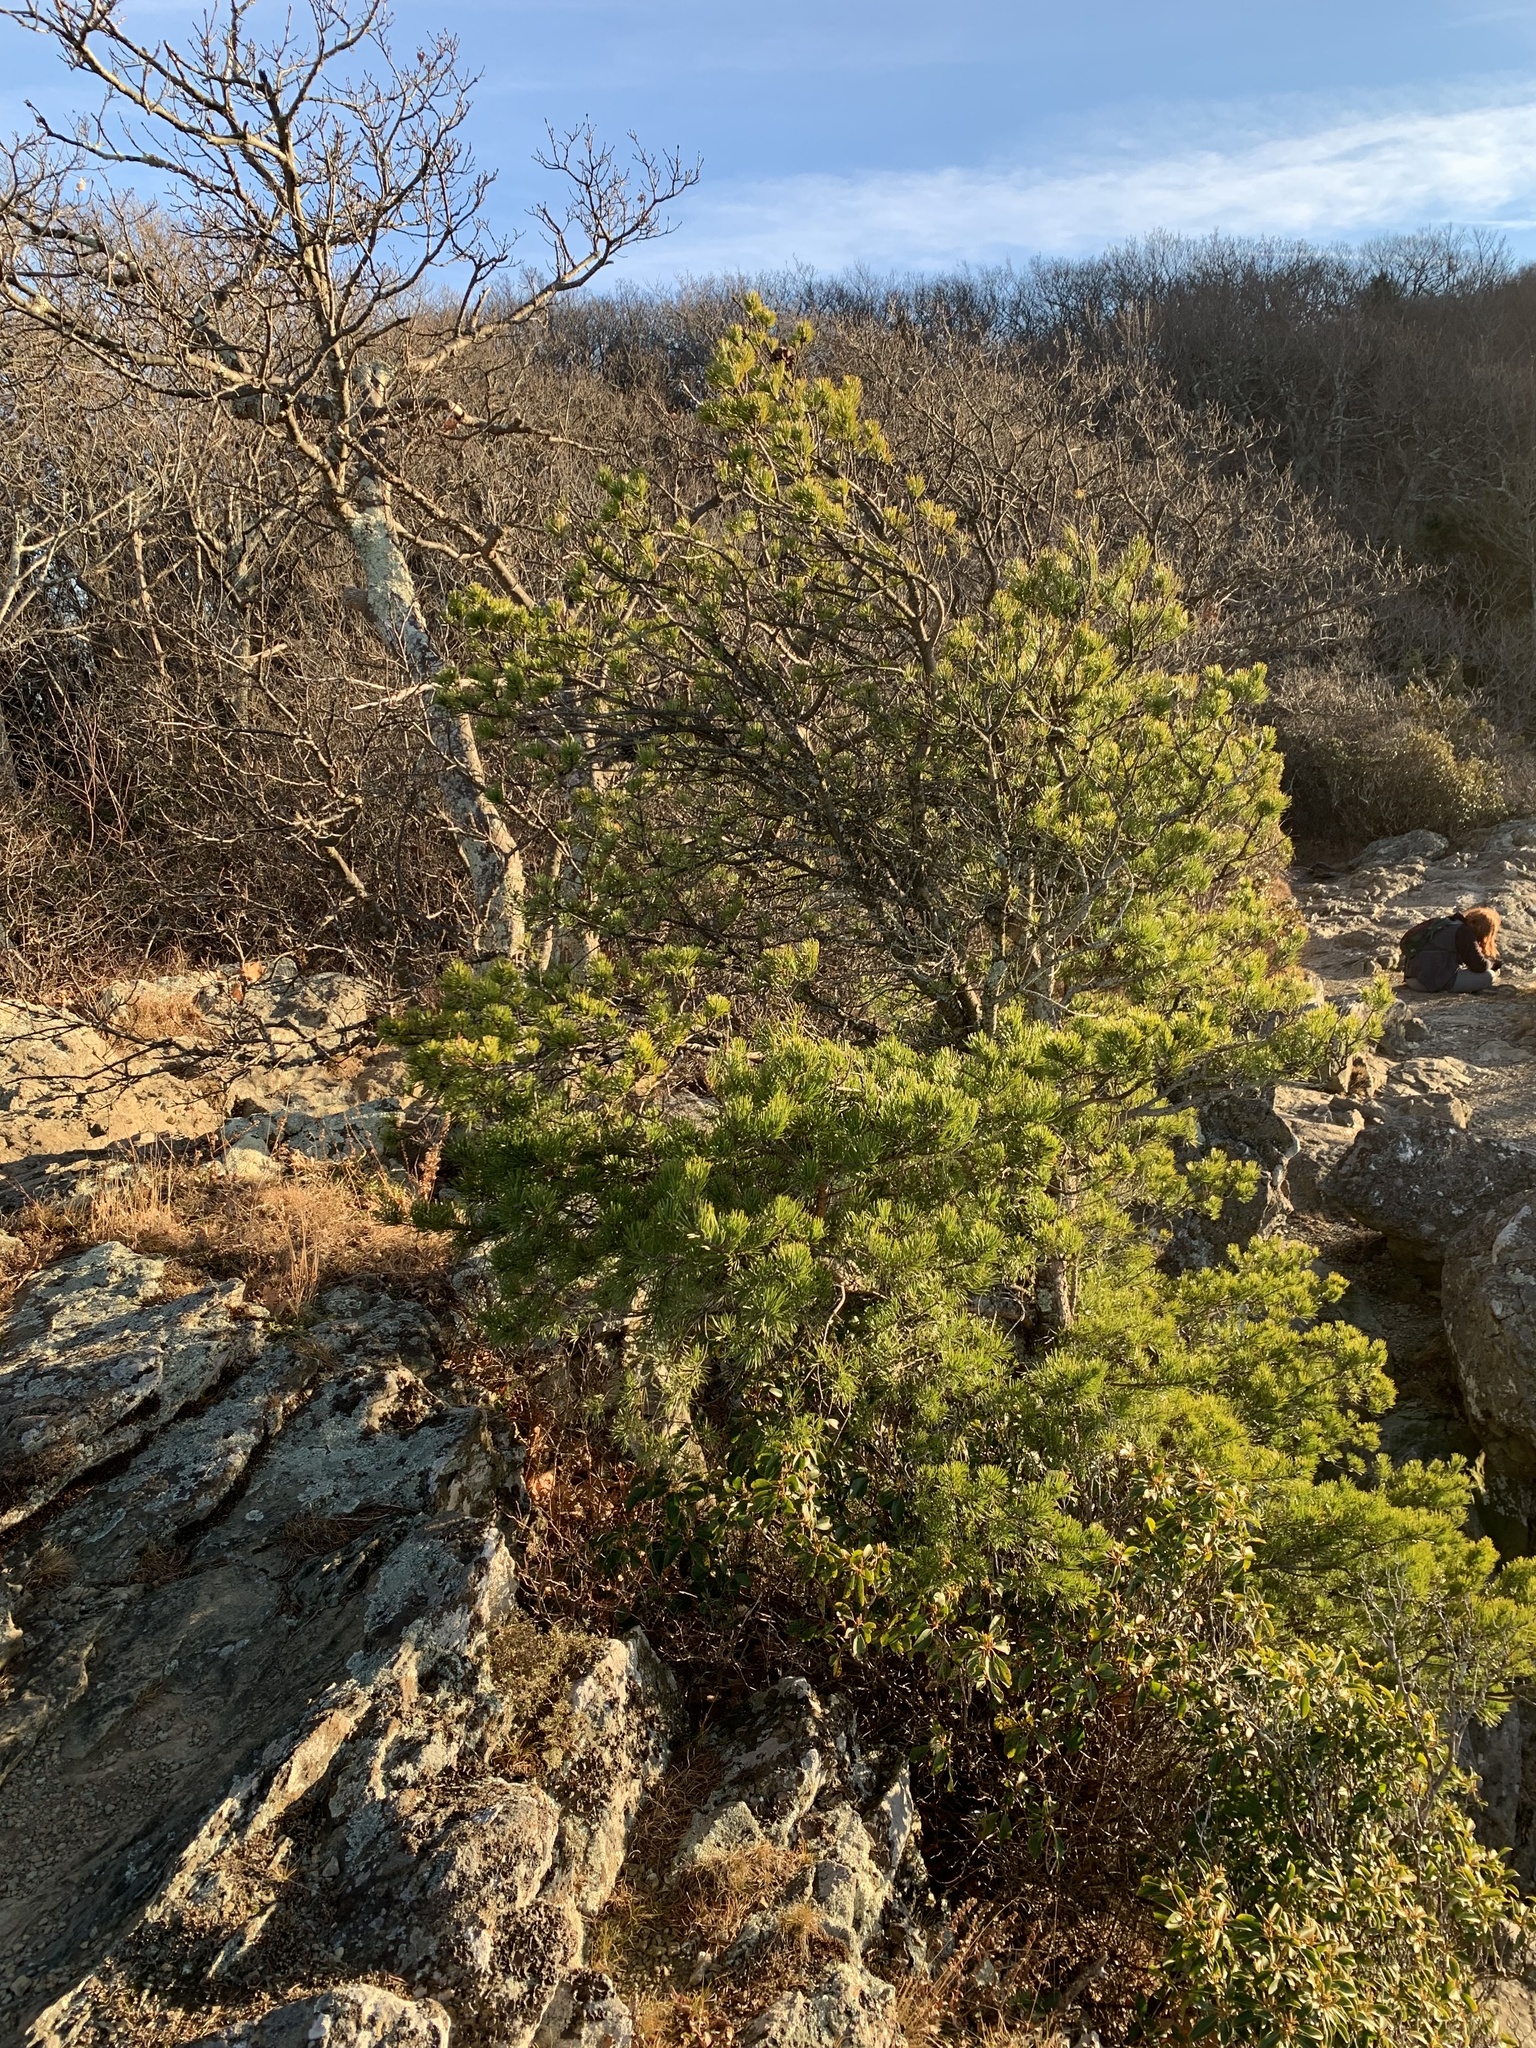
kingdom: Plantae
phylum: Tracheophyta
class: Pinopsida
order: Pinales
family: Pinaceae
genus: Pinus
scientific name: Pinus virginiana
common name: Scrub pine
